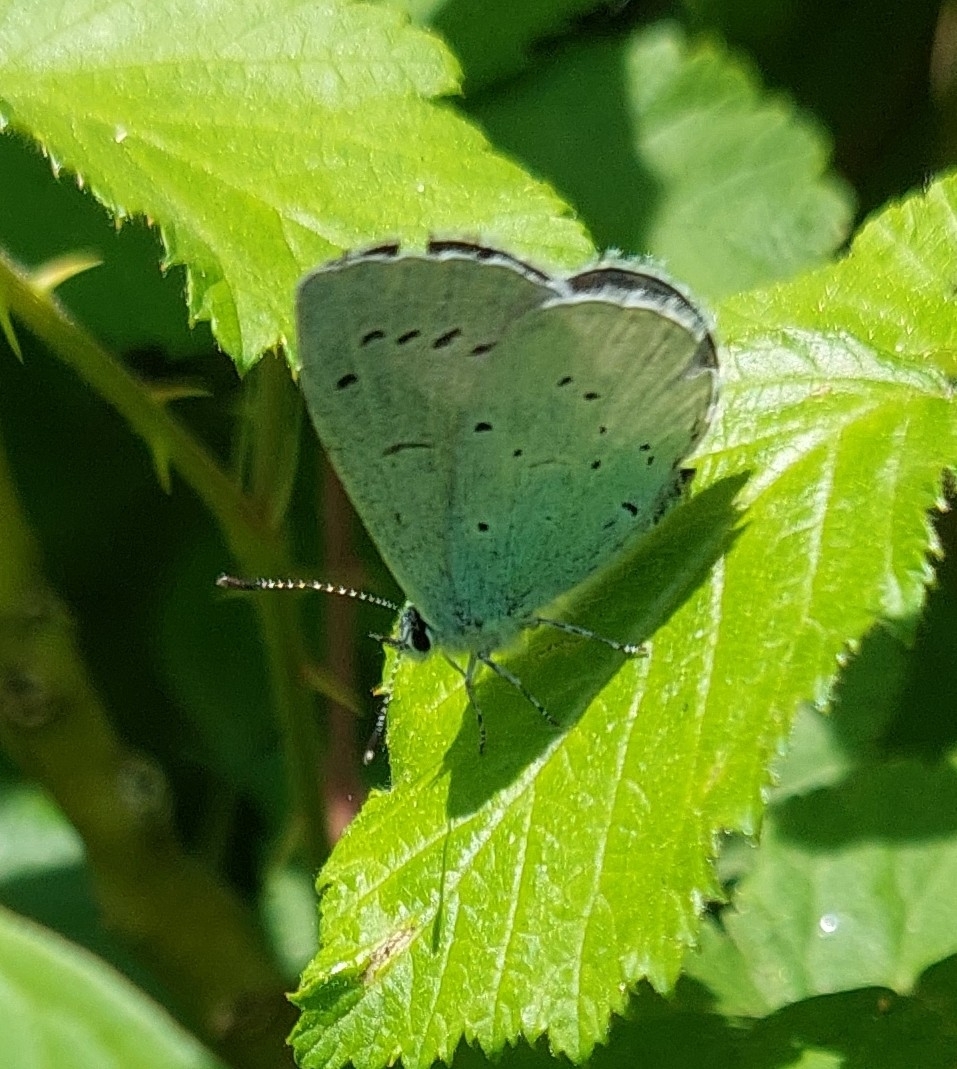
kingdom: Animalia
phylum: Arthropoda
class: Insecta
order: Lepidoptera
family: Lycaenidae
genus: Celastrina
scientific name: Celastrina argiolus
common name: Holly blue
